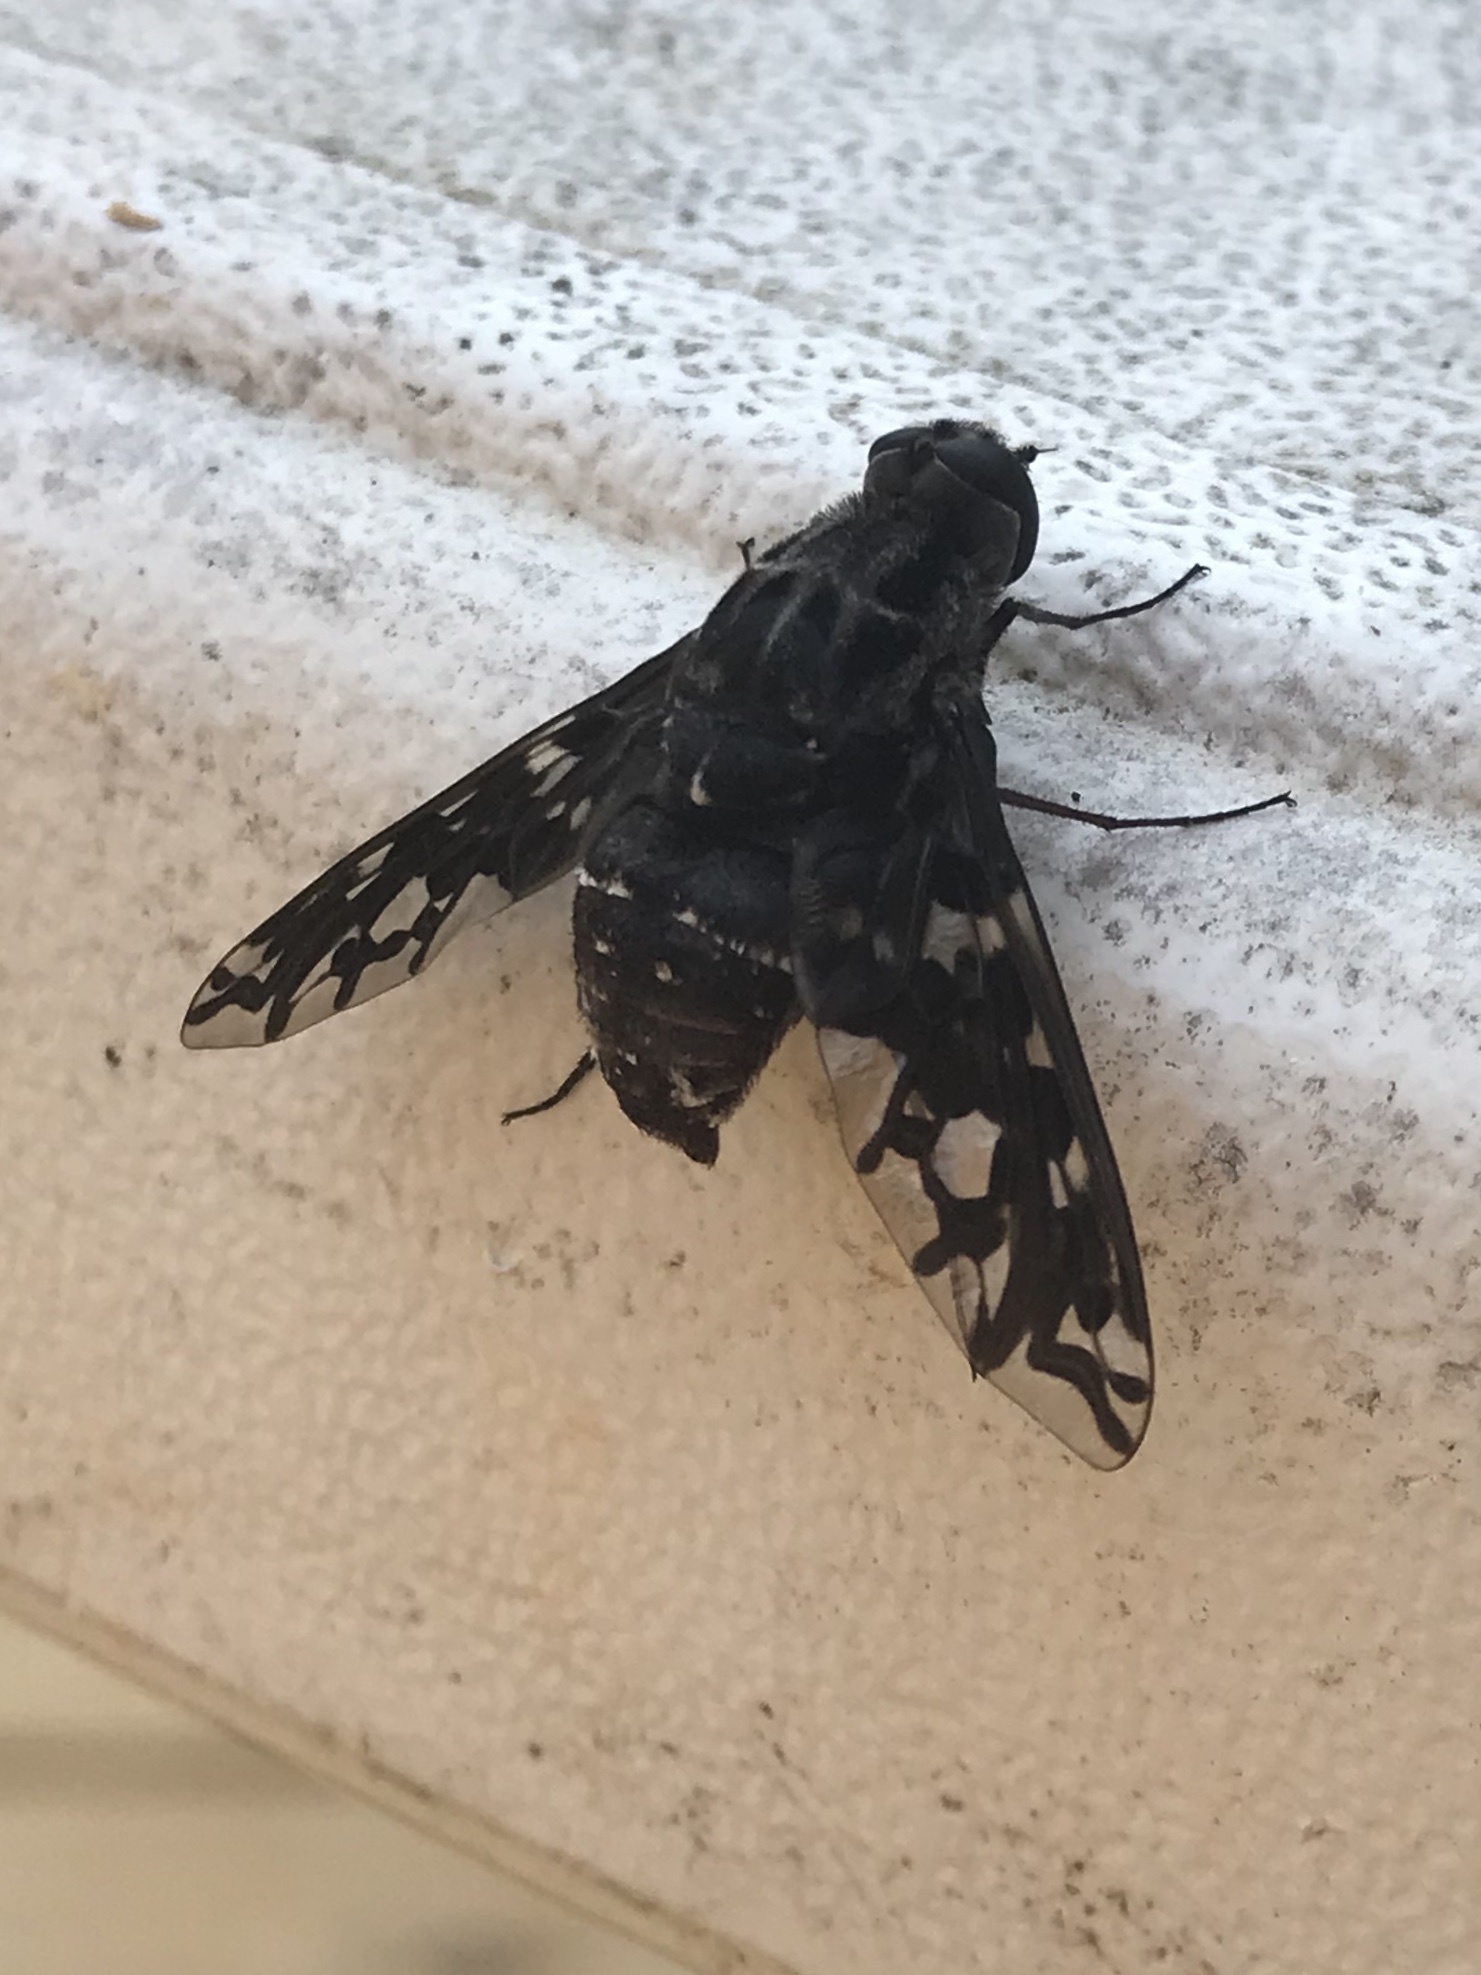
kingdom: Animalia
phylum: Arthropoda
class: Insecta
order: Diptera
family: Bombyliidae
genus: Xenox
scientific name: Xenox tigrinus
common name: Tiger bee fly
